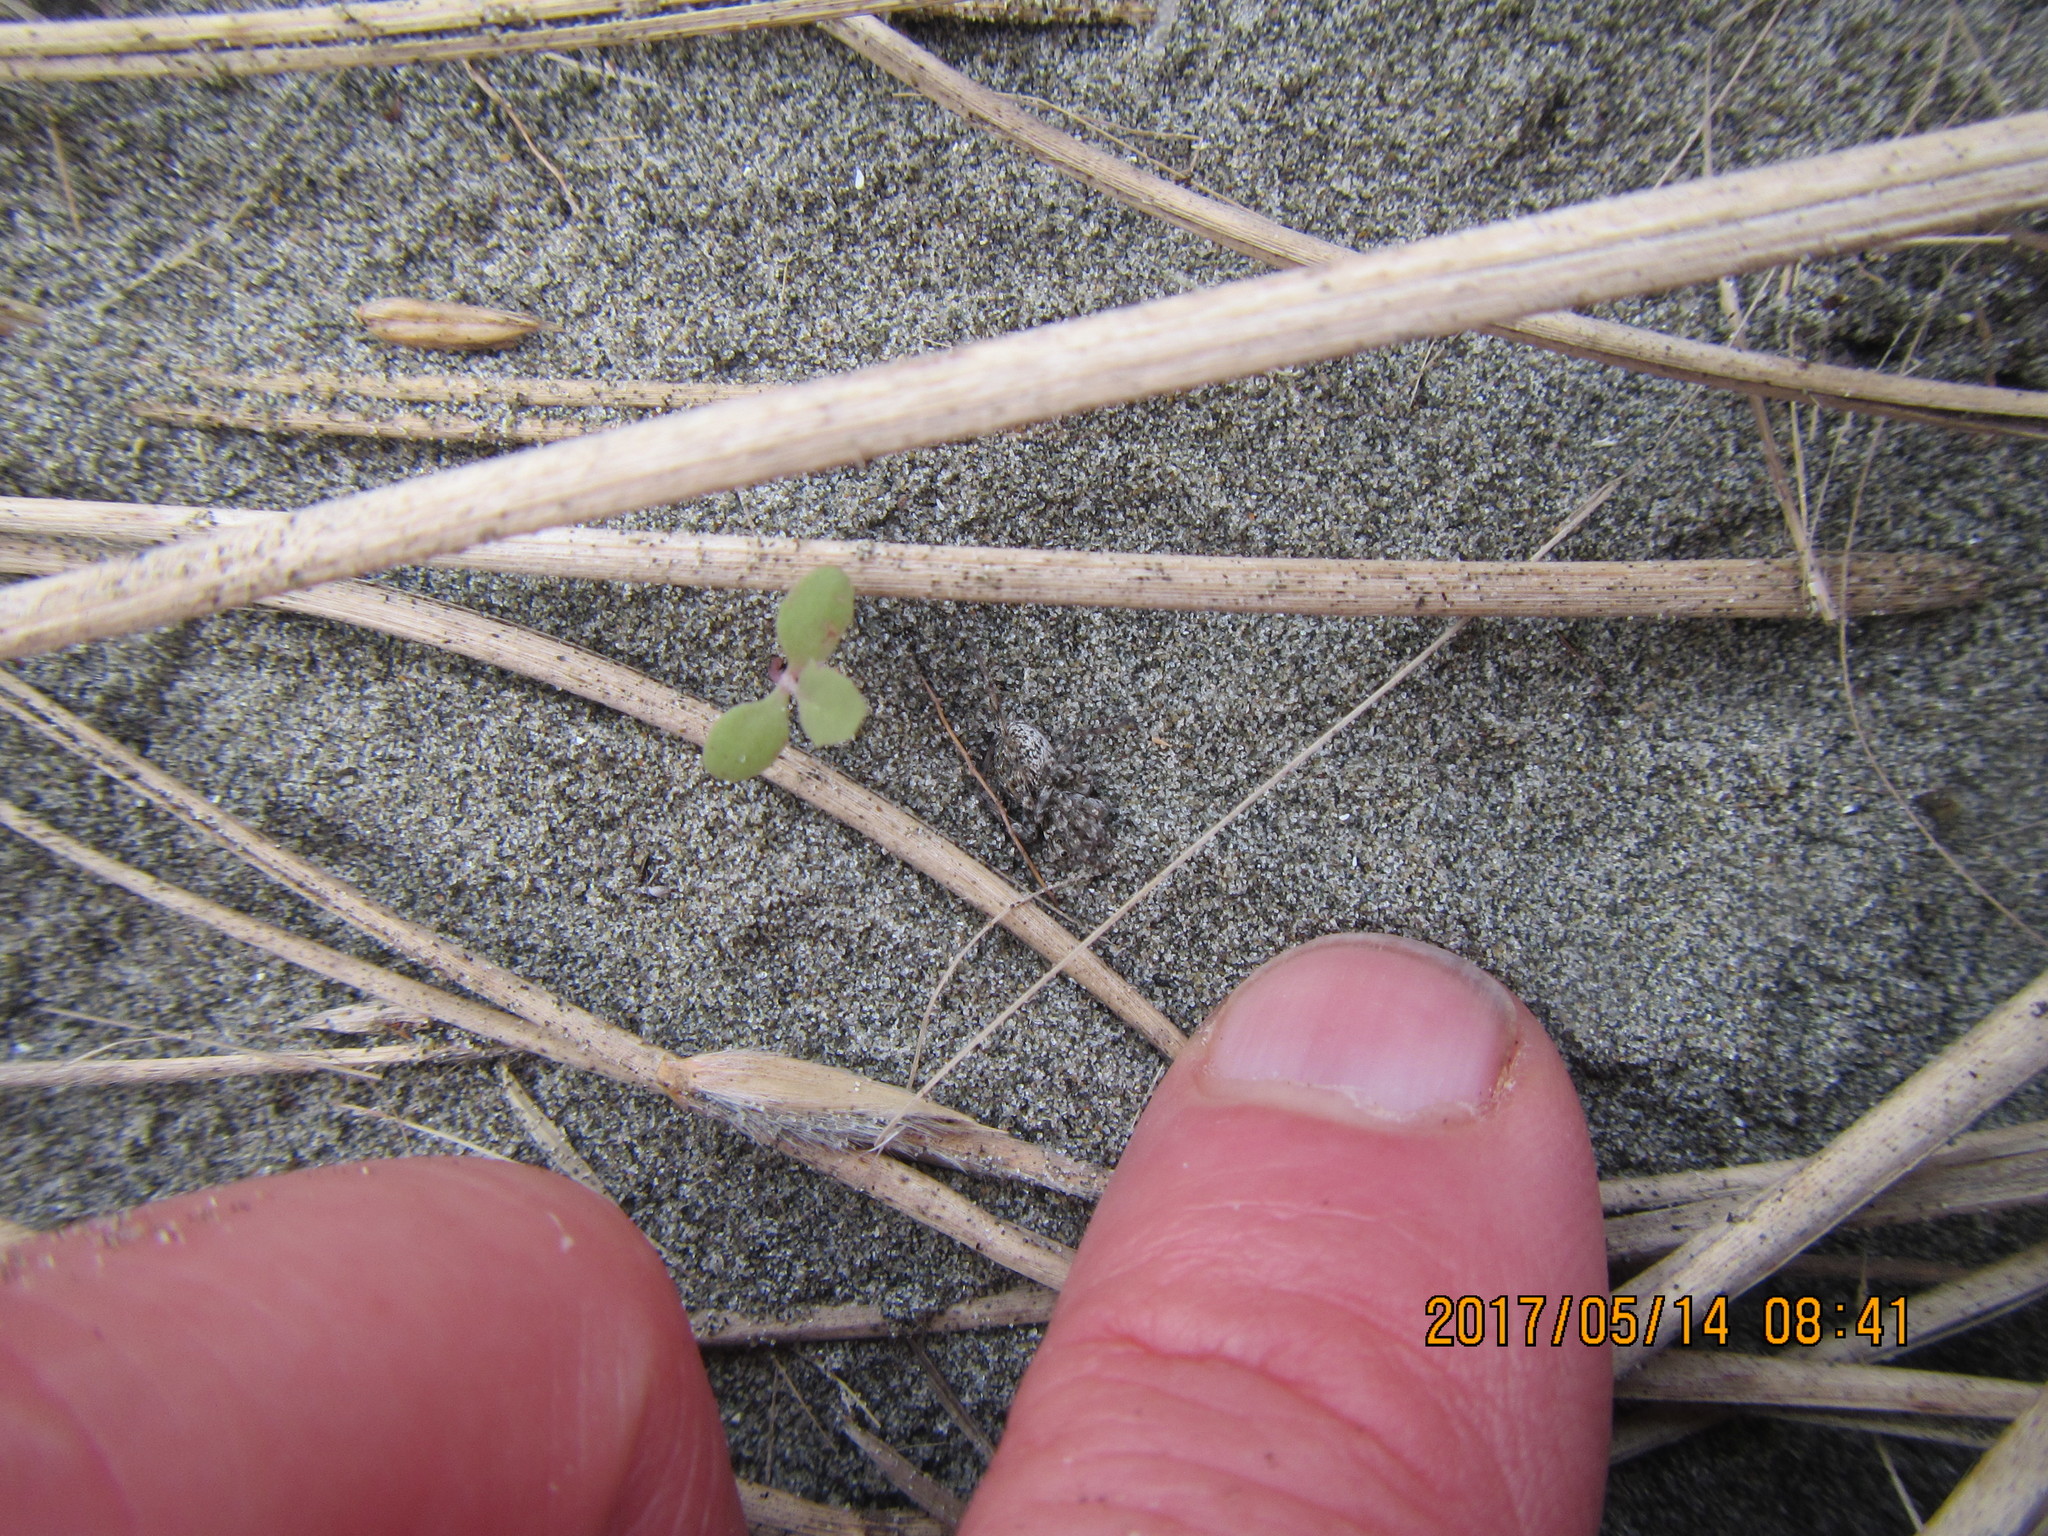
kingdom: Animalia
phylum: Arthropoda
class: Arachnida
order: Araneae
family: Lycosidae
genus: Anoteropsis
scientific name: Anoteropsis litoralis
